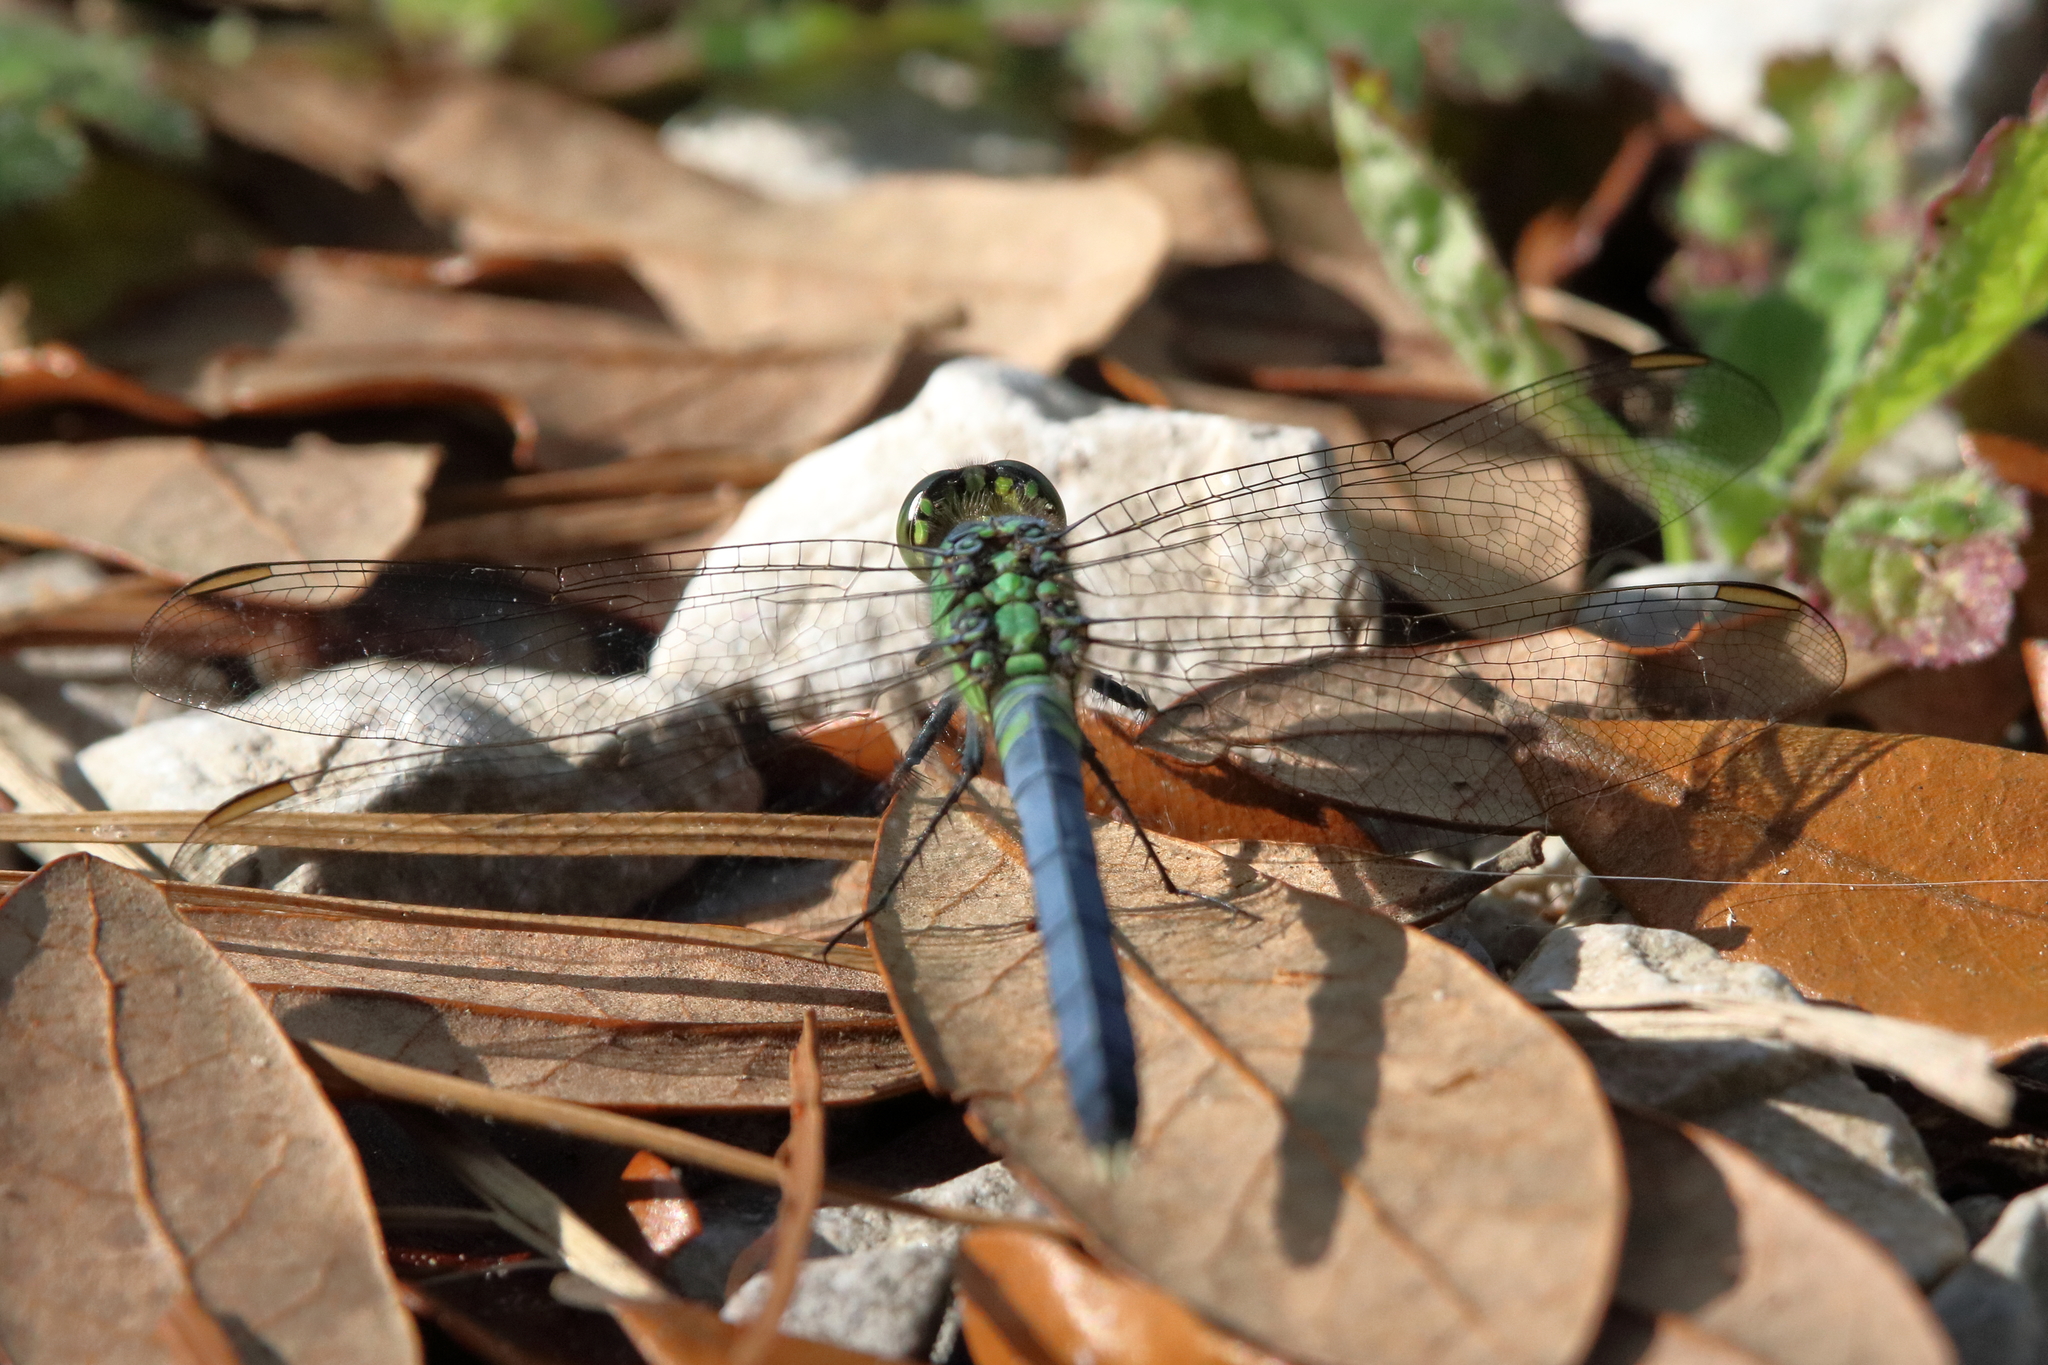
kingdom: Animalia
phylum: Arthropoda
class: Insecta
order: Odonata
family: Libellulidae
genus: Erythemis
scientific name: Erythemis simplicicollis
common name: Eastern pondhawk
